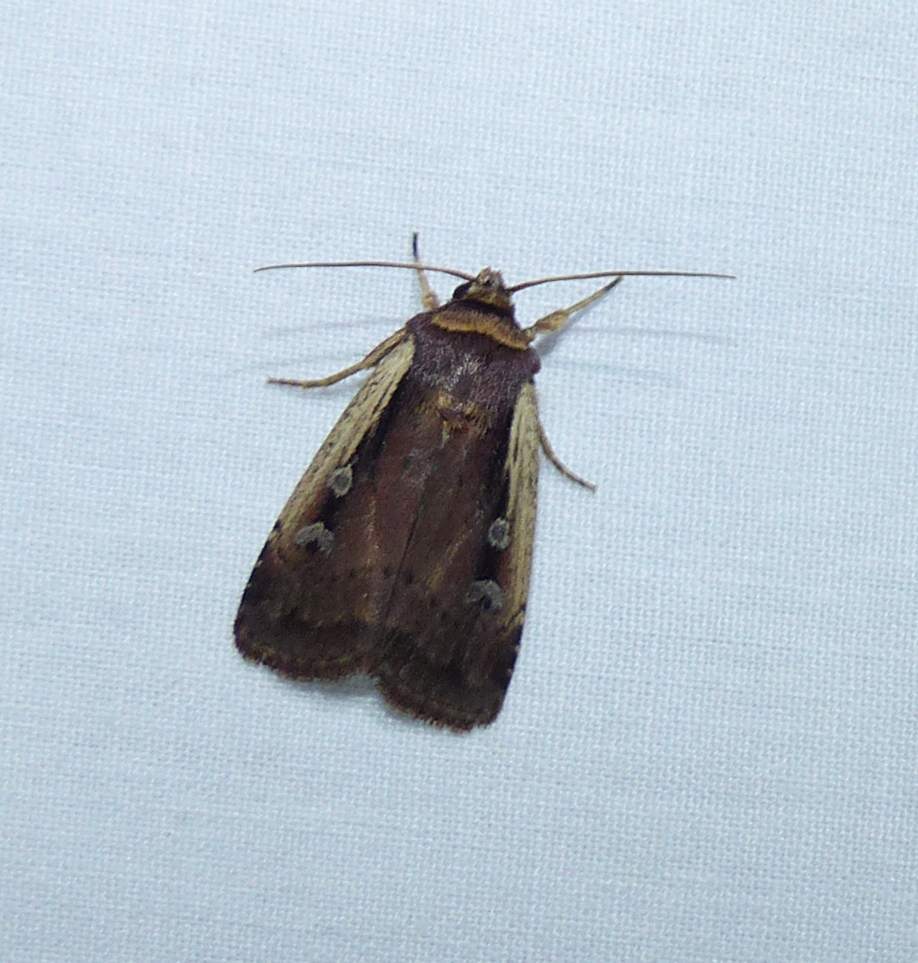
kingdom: Animalia
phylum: Arthropoda
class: Insecta
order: Lepidoptera
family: Noctuidae
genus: Ochropleura
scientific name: Ochropleura implecta
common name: Flame-shouldered dart
